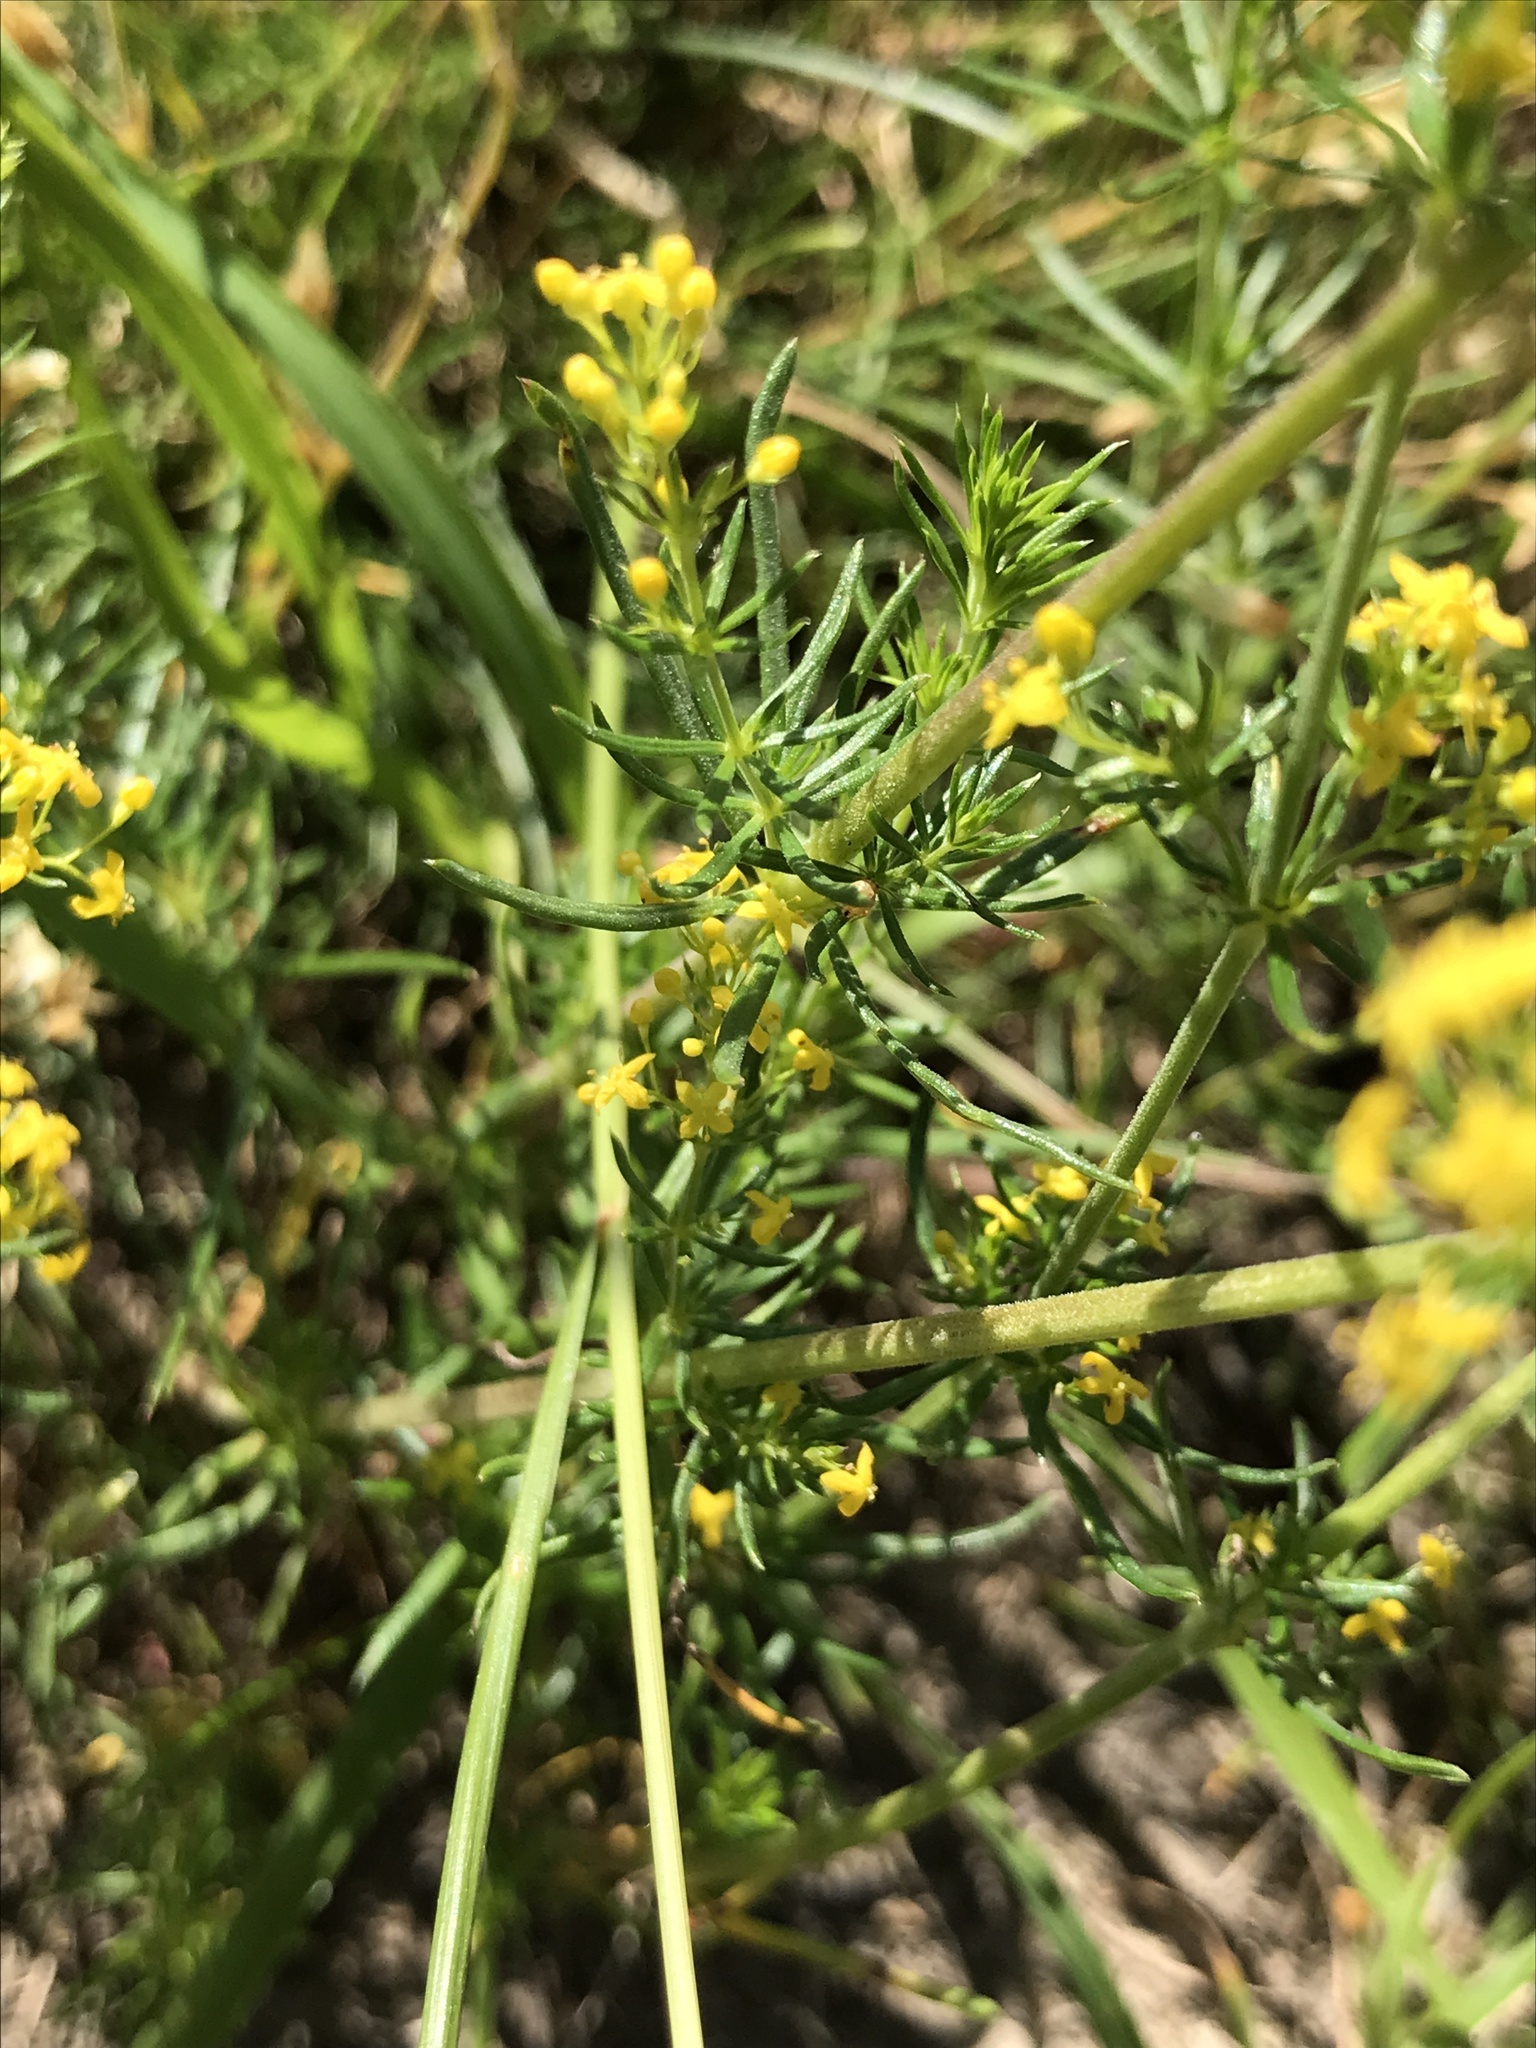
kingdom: Plantae
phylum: Tracheophyta
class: Magnoliopsida
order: Gentianales
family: Rubiaceae
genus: Galium
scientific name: Galium verum
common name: Lady's bedstraw
